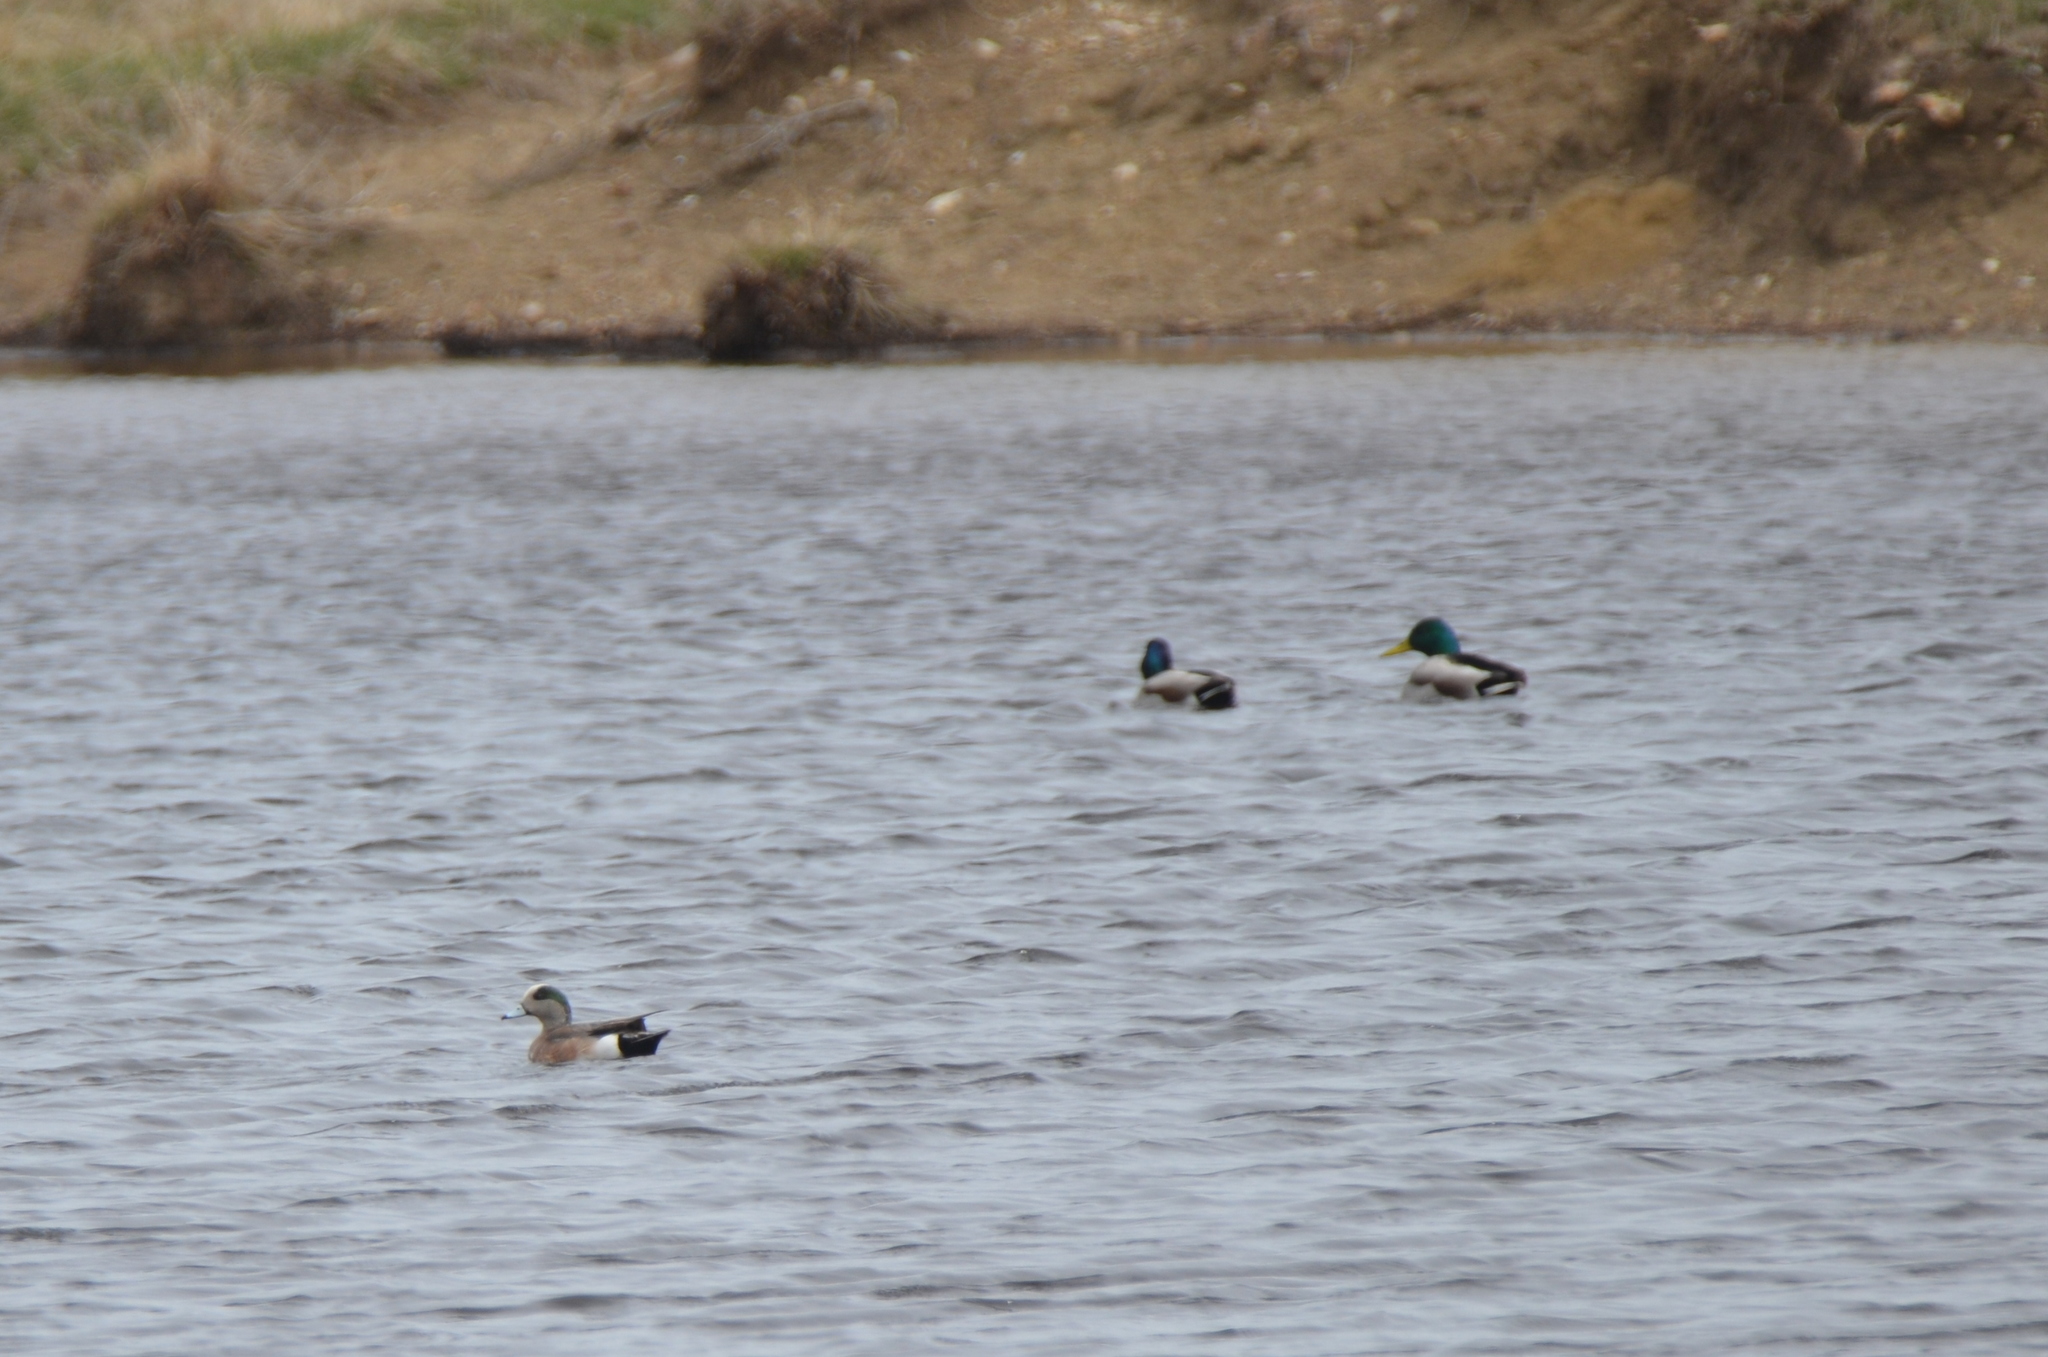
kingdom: Animalia
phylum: Chordata
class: Aves
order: Anseriformes
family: Anatidae
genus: Mareca
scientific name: Mareca americana
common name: American wigeon
